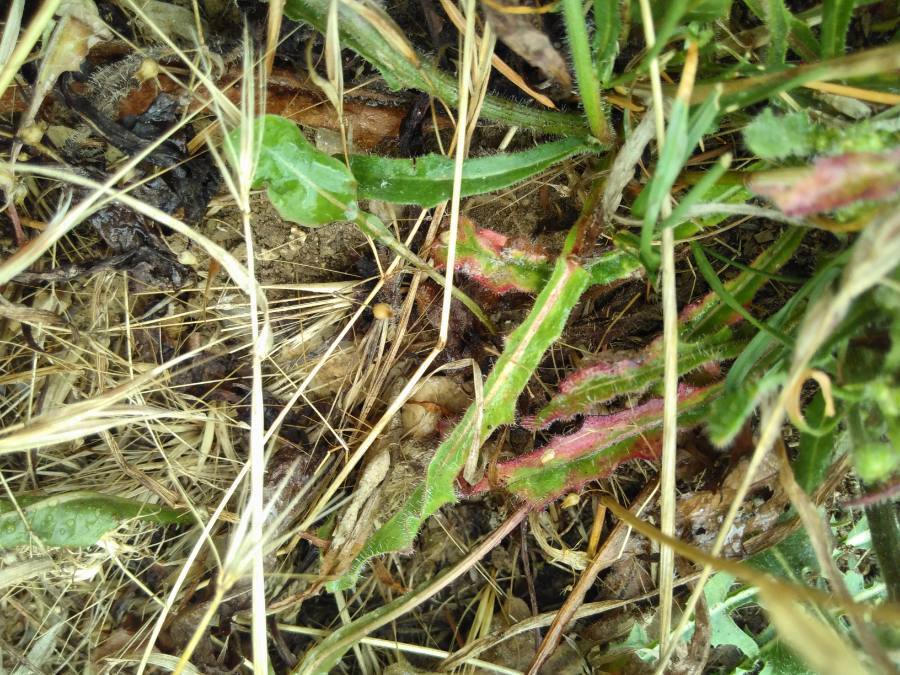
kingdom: Plantae
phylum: Tracheophyta
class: Magnoliopsida
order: Asterales
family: Asteraceae
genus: Helminthotheca
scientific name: Helminthotheca echioides
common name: Ox-tongue
